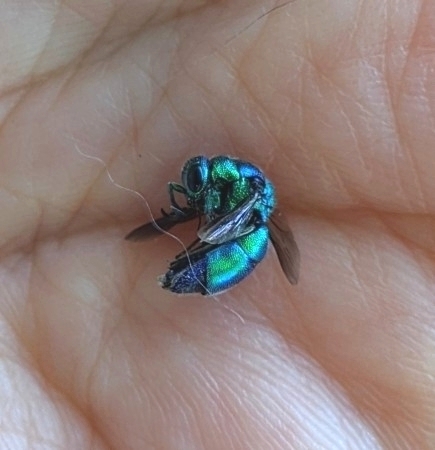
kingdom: Animalia
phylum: Arthropoda
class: Insecta
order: Hymenoptera
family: Chrysididae
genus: Chrysis
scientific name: Chrysis angolensis
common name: Cuckoo wasp
